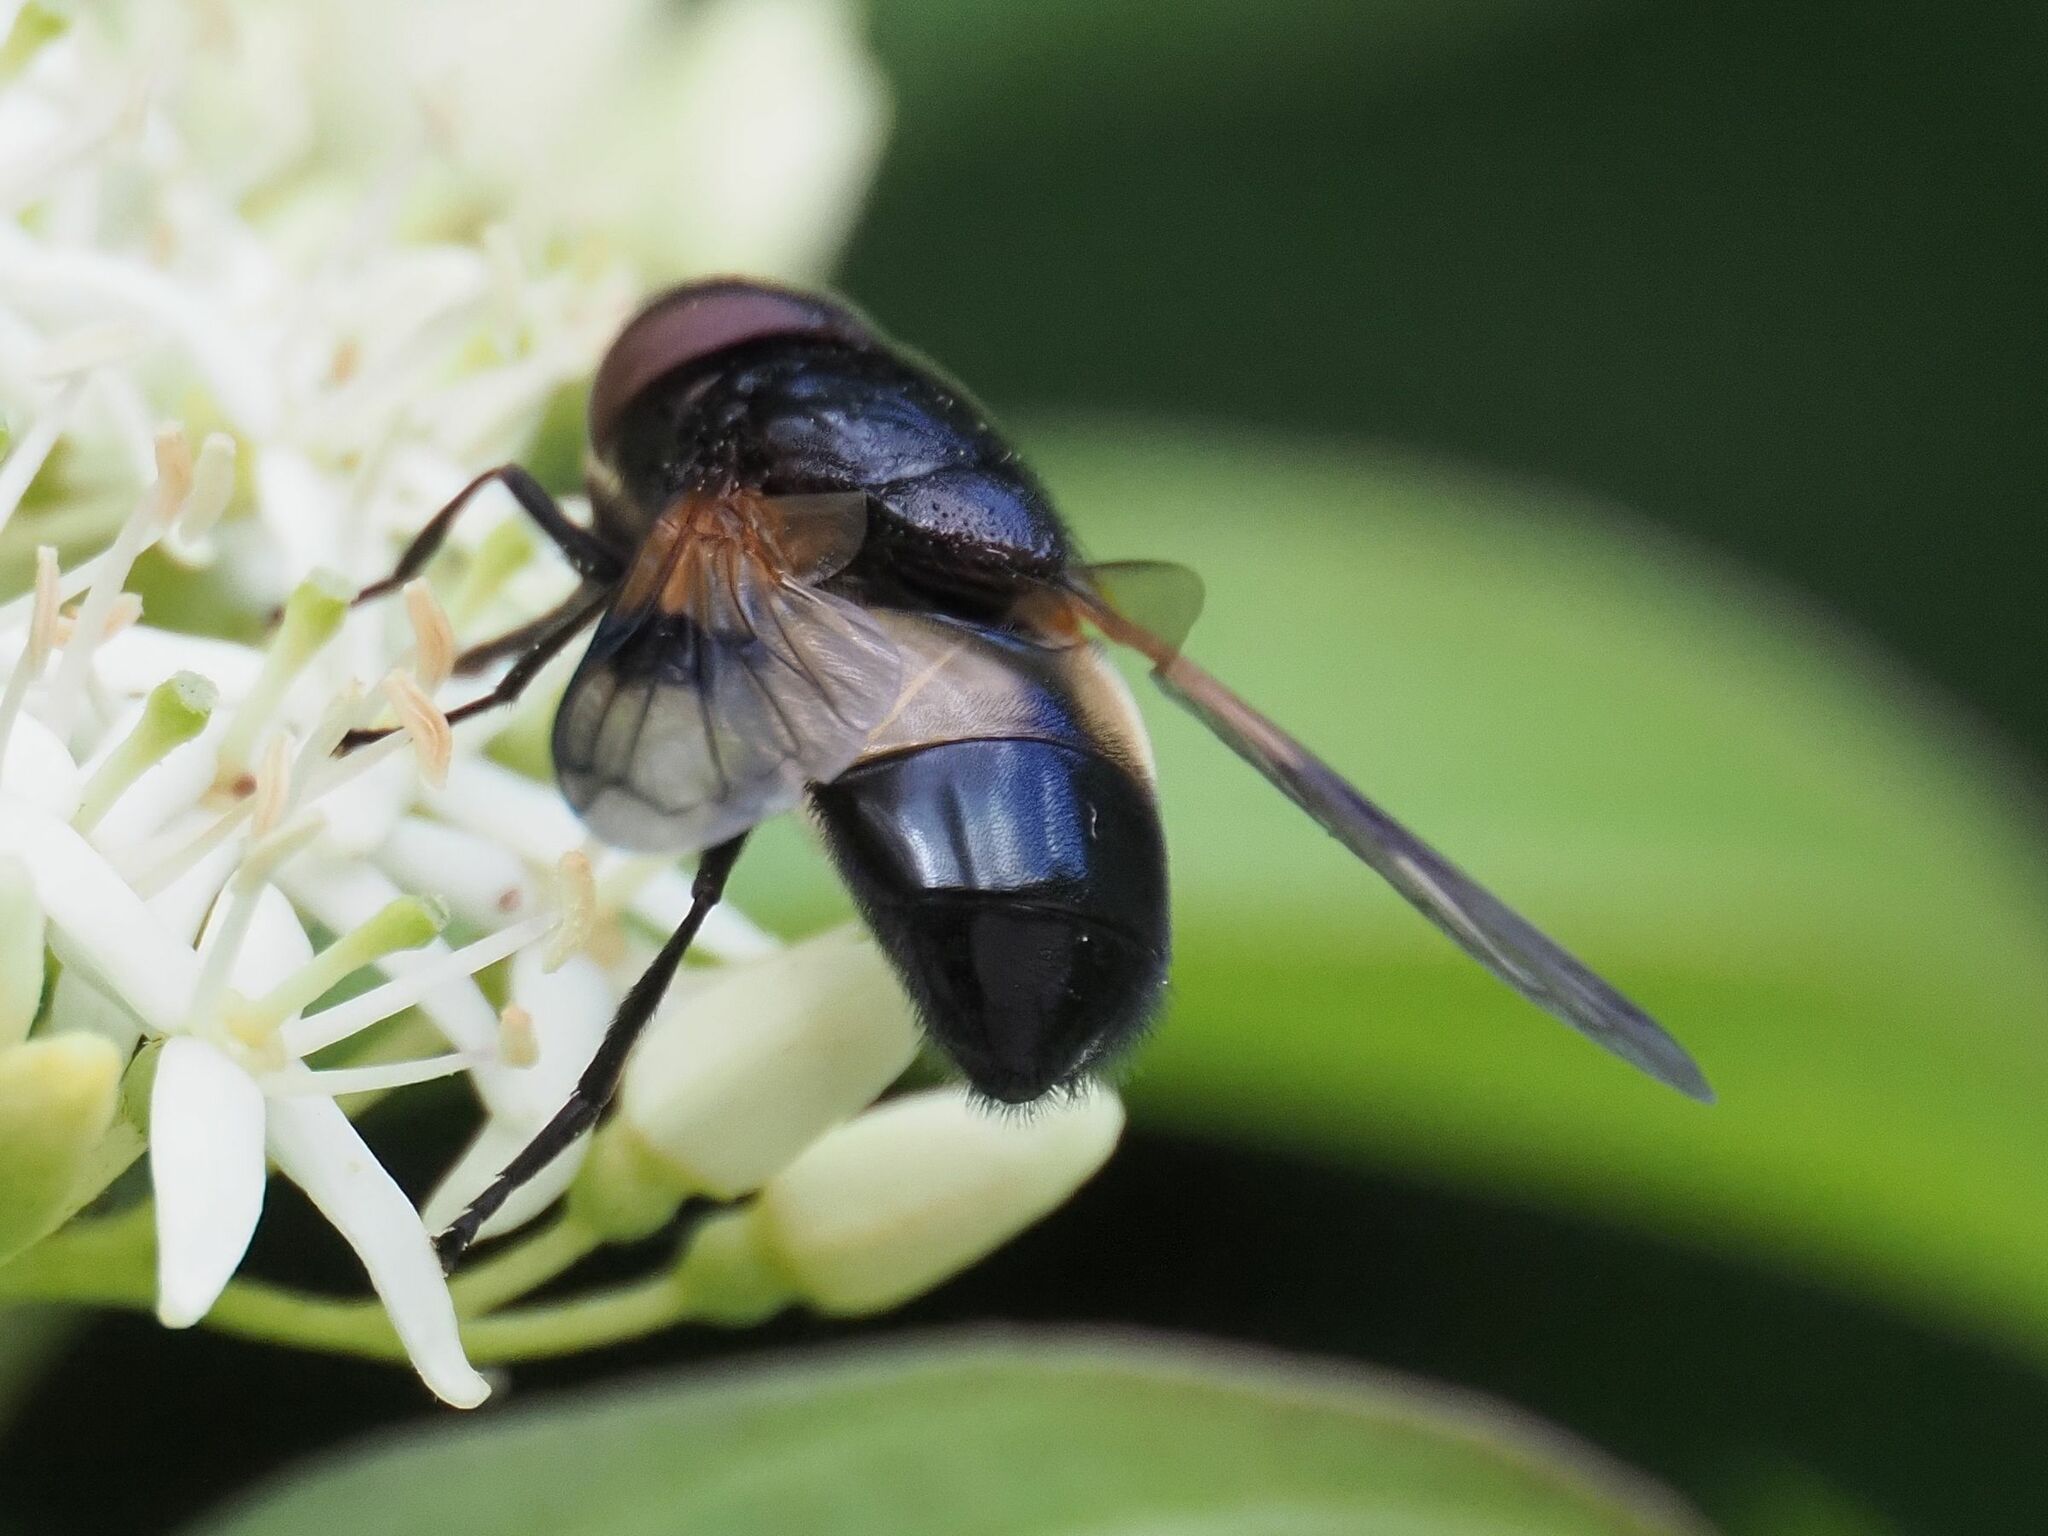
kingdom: Animalia
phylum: Arthropoda
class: Insecta
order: Diptera
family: Syrphidae
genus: Volucella
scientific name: Volucella pellucens
